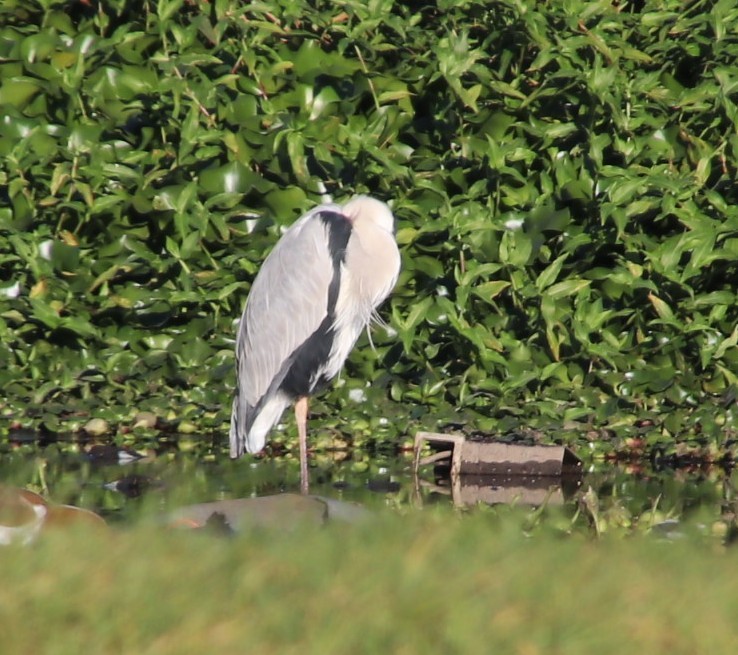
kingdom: Animalia
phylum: Chordata
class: Aves
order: Pelecaniformes
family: Ardeidae
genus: Ardea
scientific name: Ardea cinerea
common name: Grey heron
